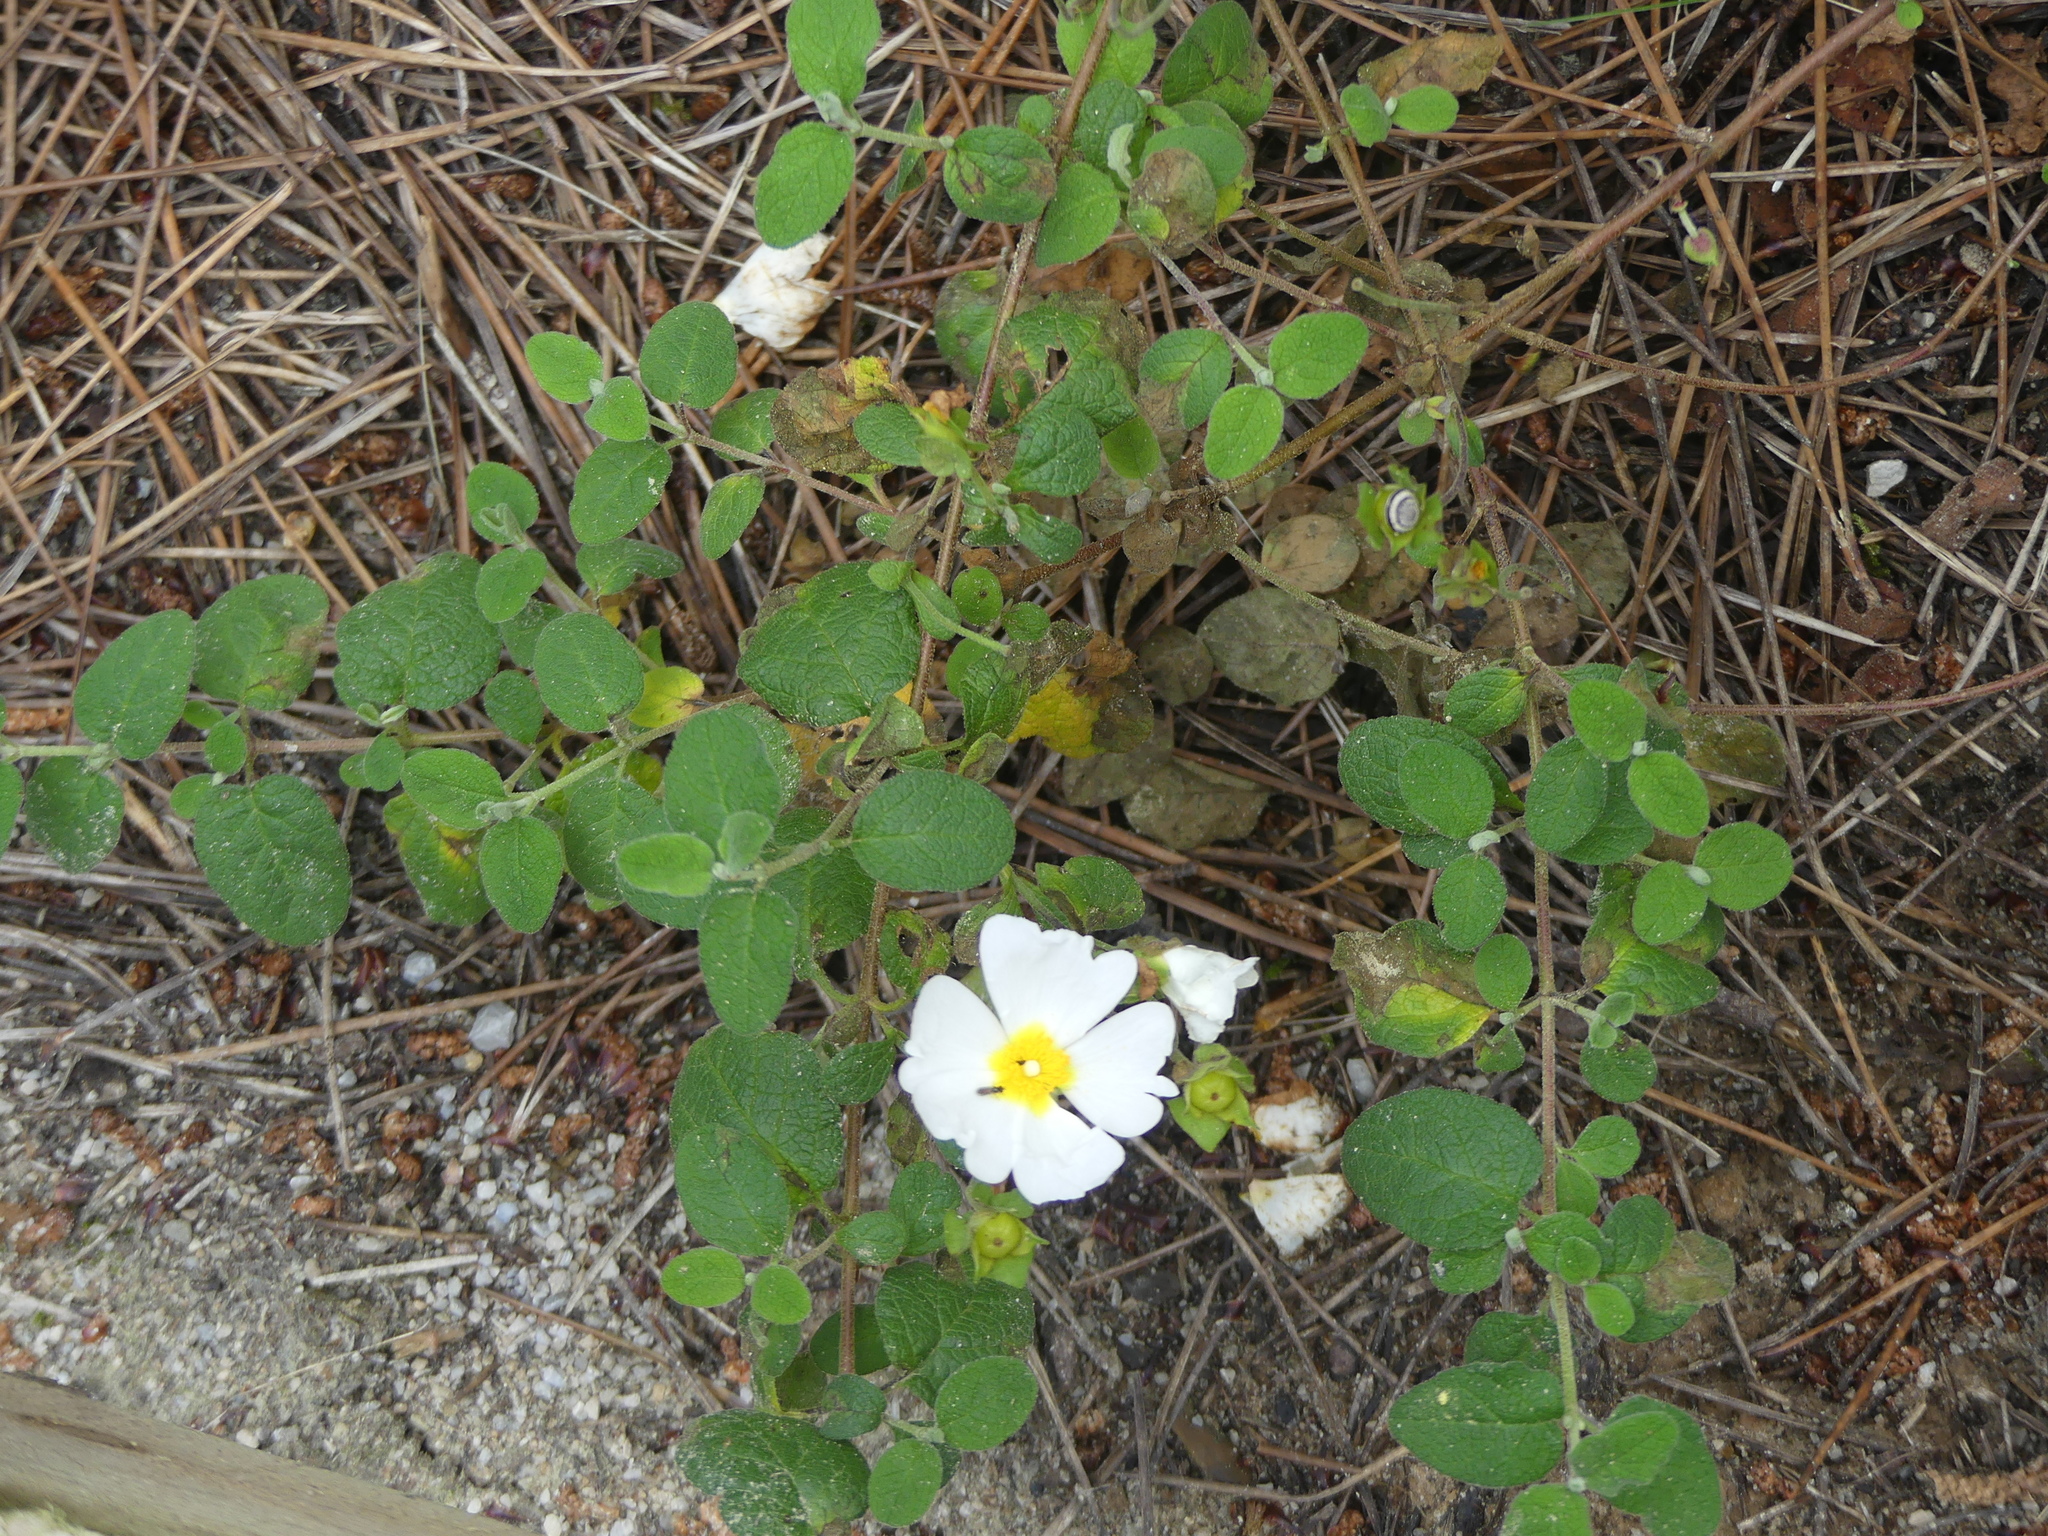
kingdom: Plantae
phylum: Tracheophyta
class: Magnoliopsida
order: Malvales
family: Cistaceae
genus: Cistus
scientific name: Cistus salviifolius
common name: Salvia cistus
